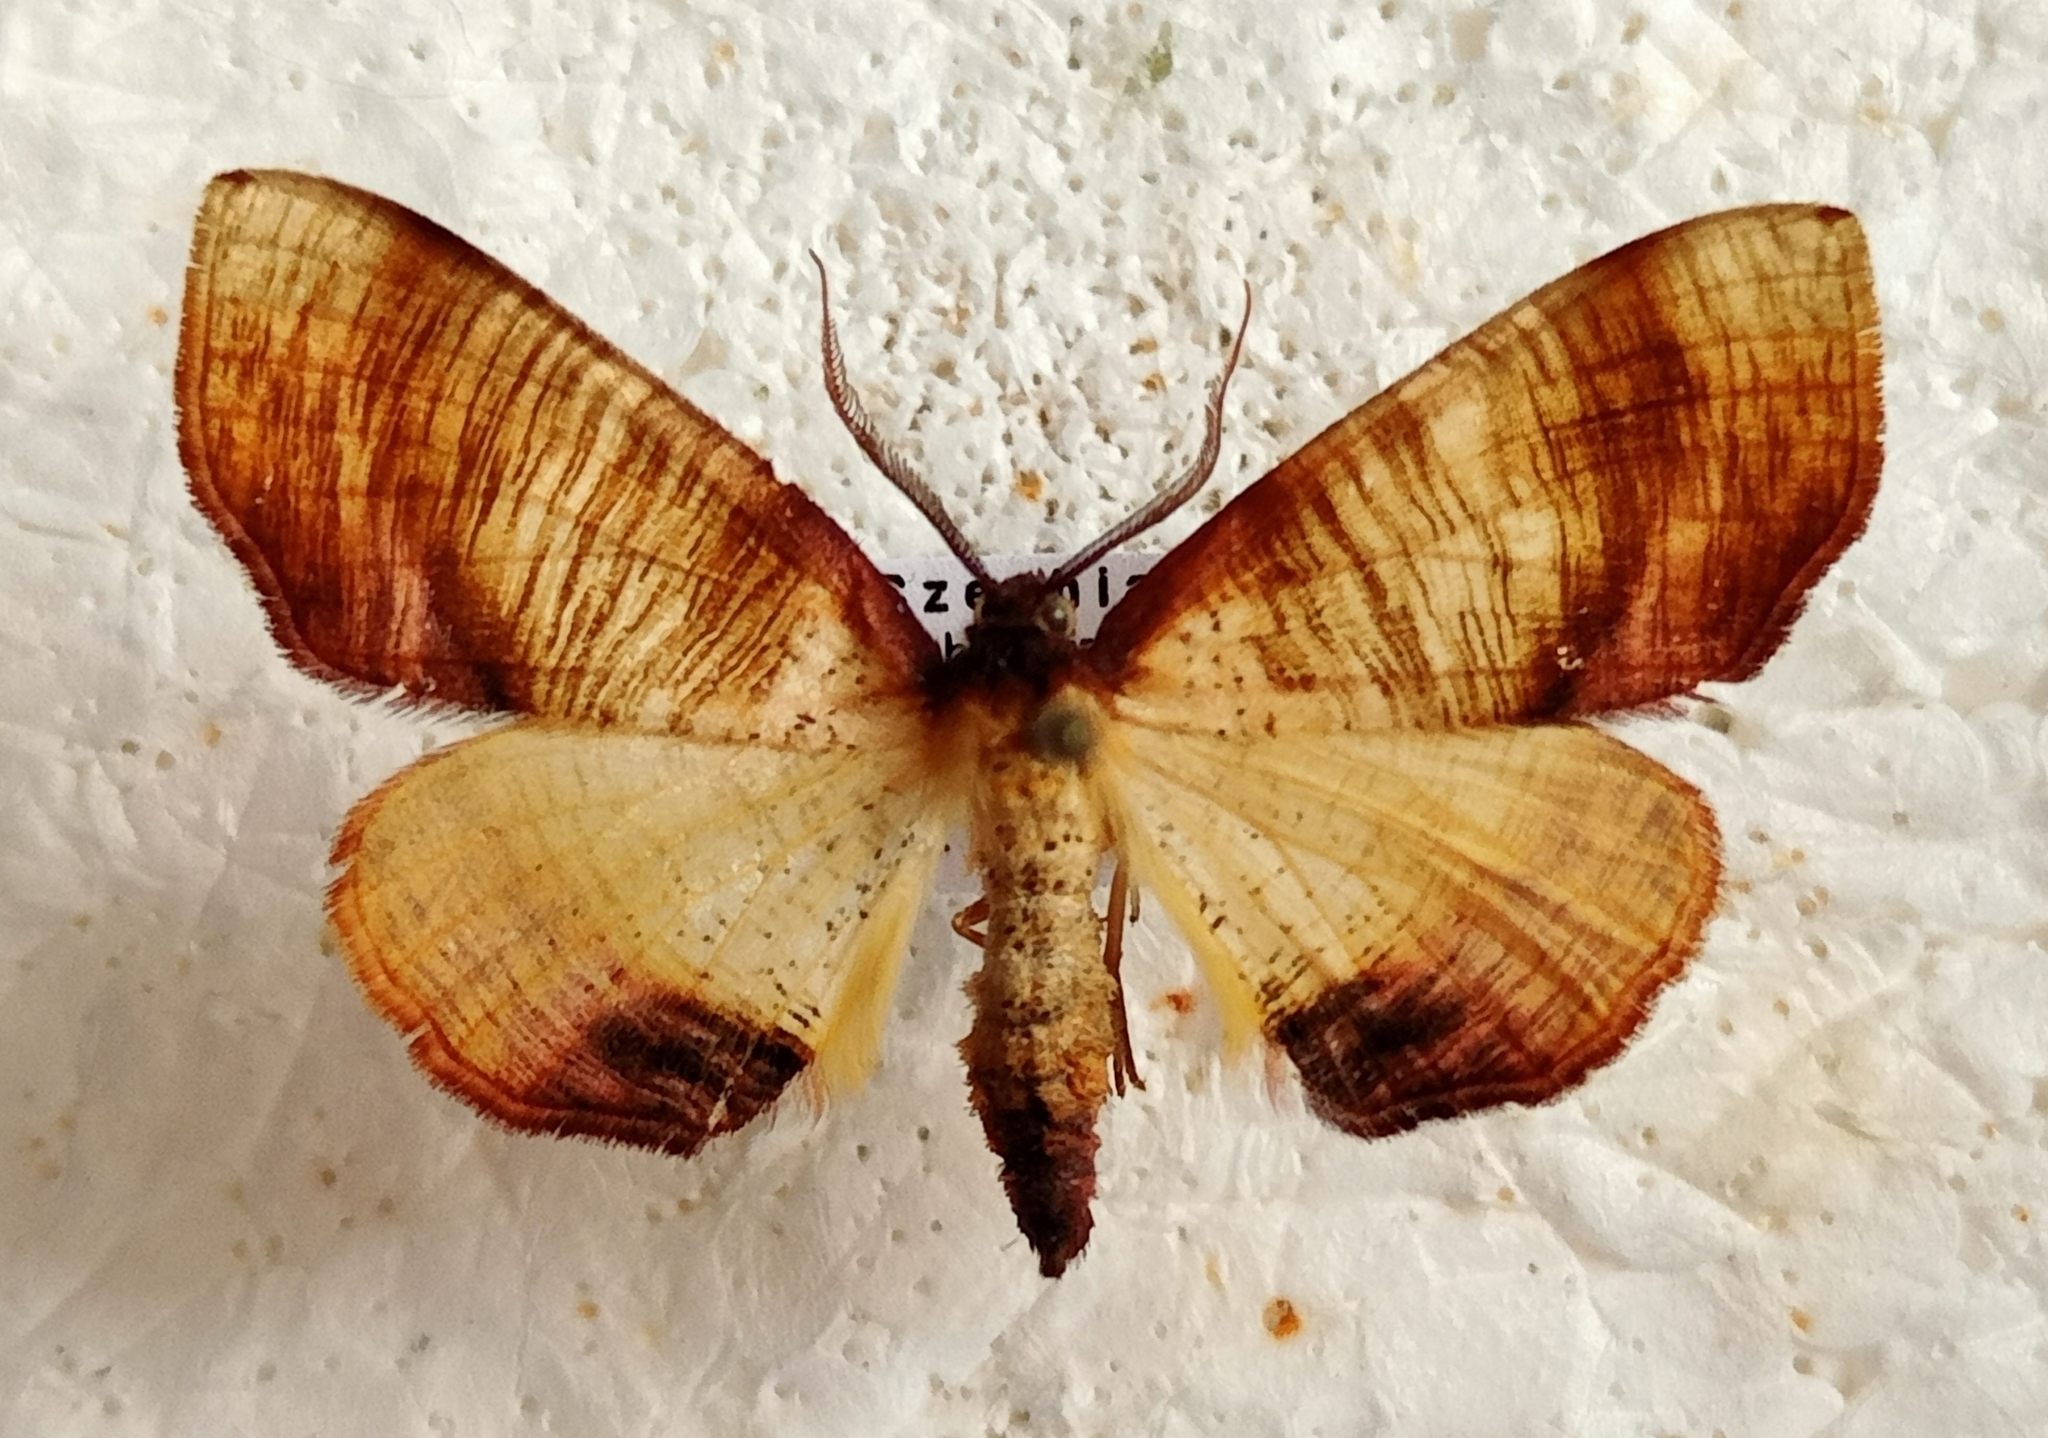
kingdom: Animalia
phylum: Arthropoda
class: Insecta
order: Lepidoptera
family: Geometridae
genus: Plagodis
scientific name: Plagodis dolabraria
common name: Scorched wing
